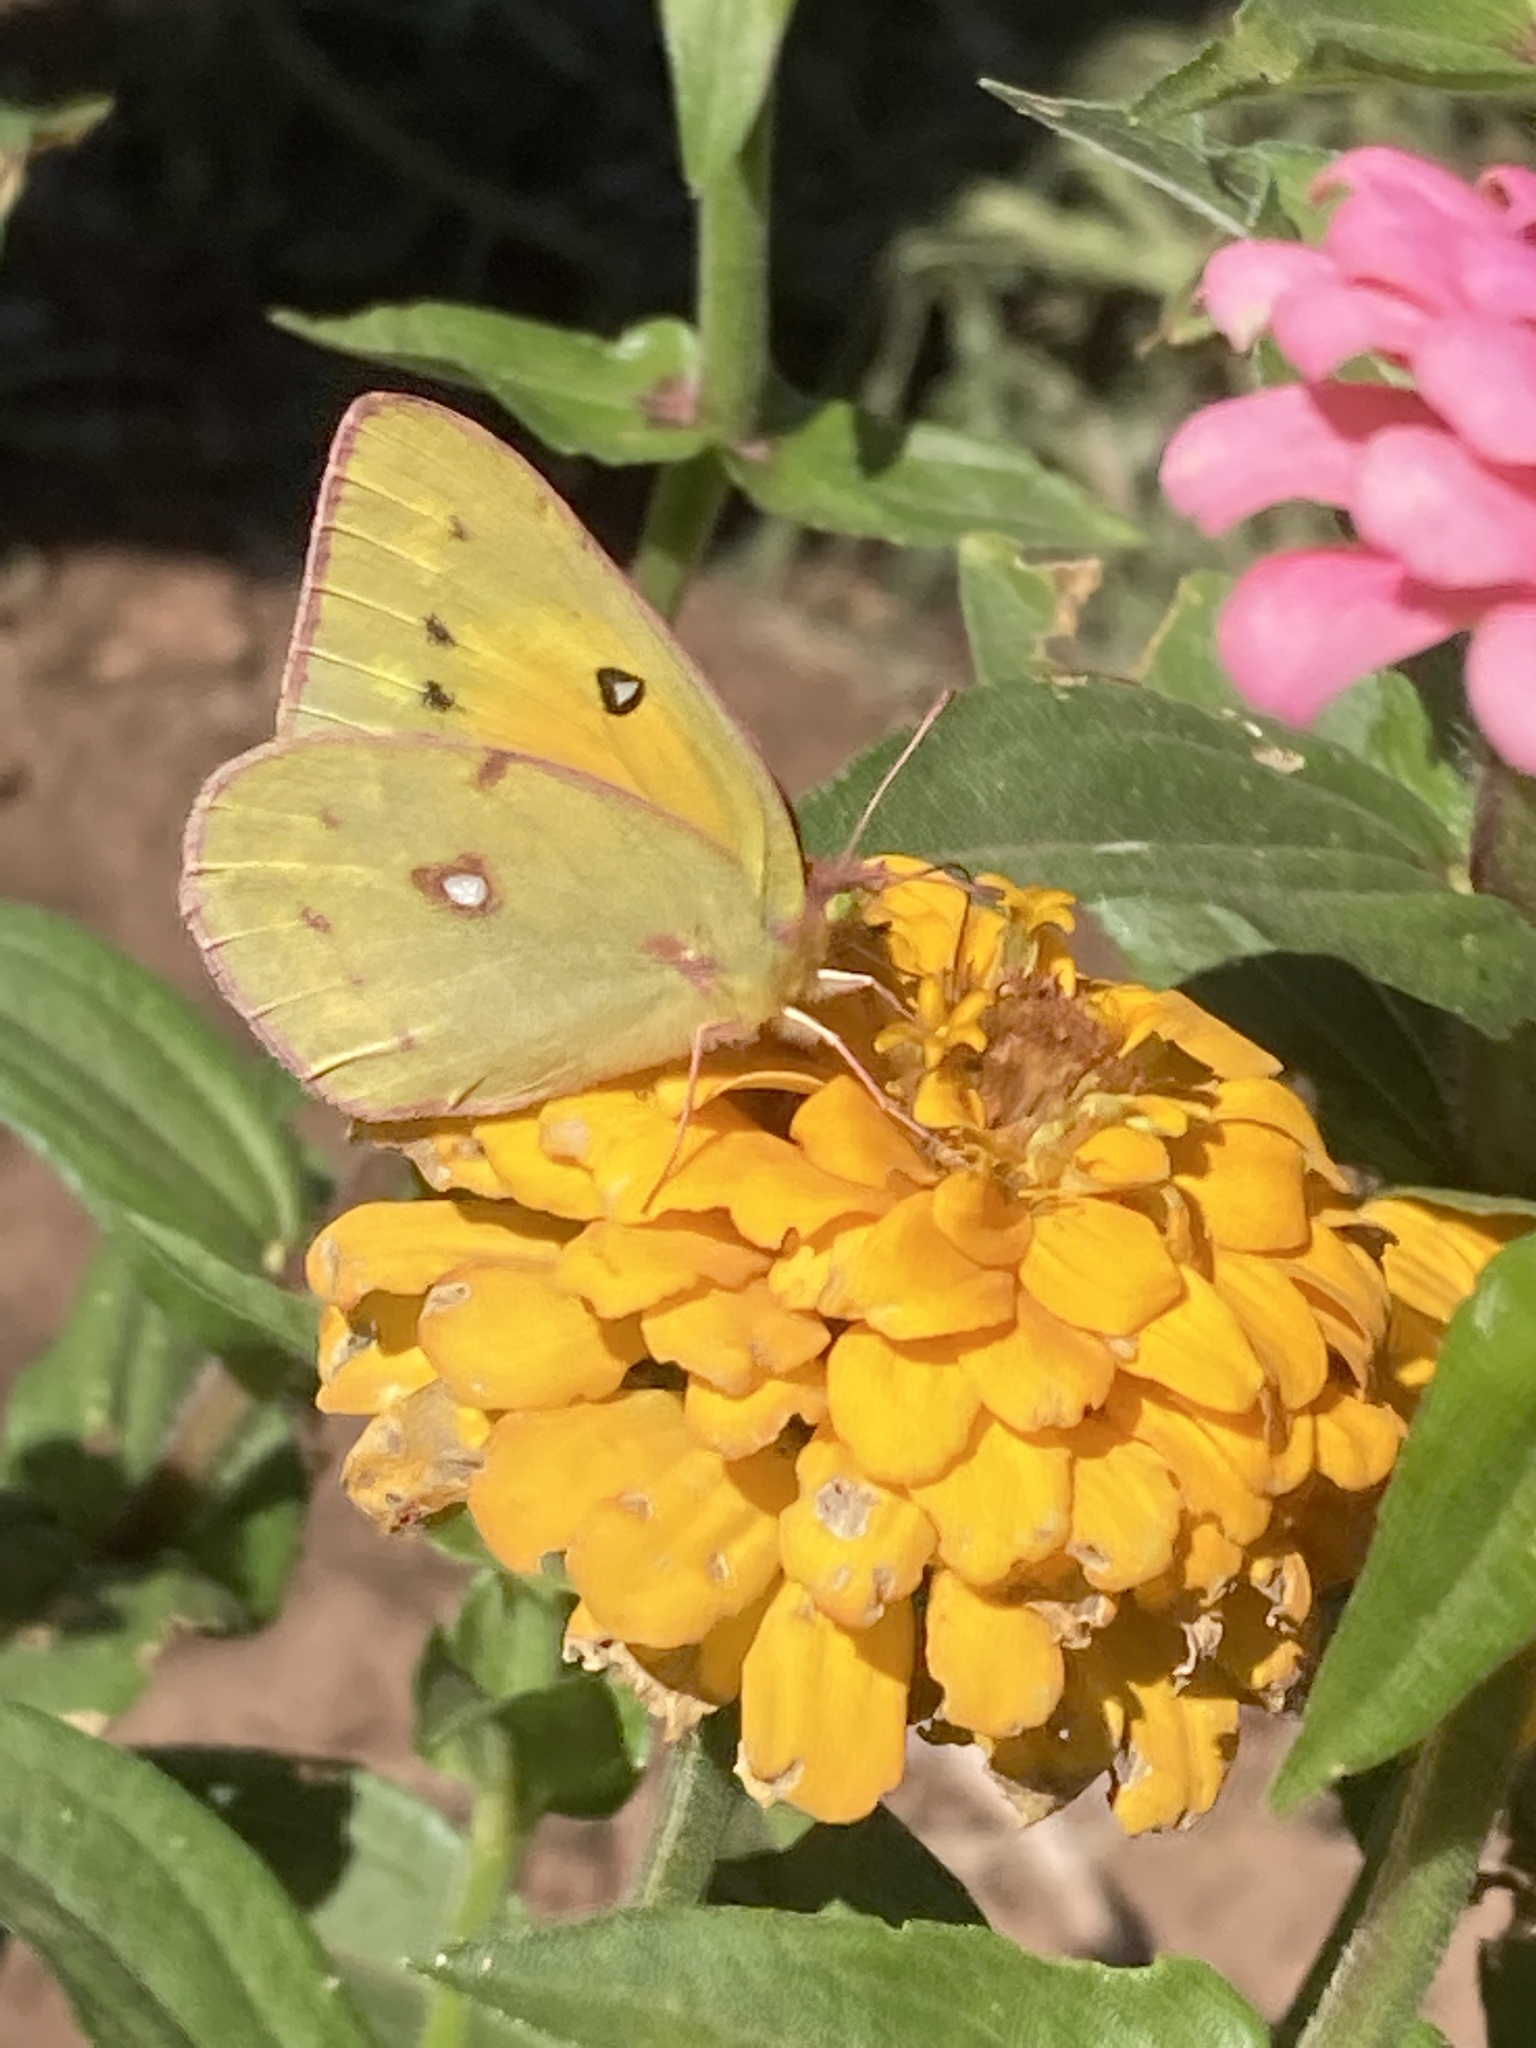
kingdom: Animalia
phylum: Arthropoda
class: Insecta
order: Lepidoptera
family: Pieridae
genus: Colias
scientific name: Colias eurytheme
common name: Alfalfa butterfly
